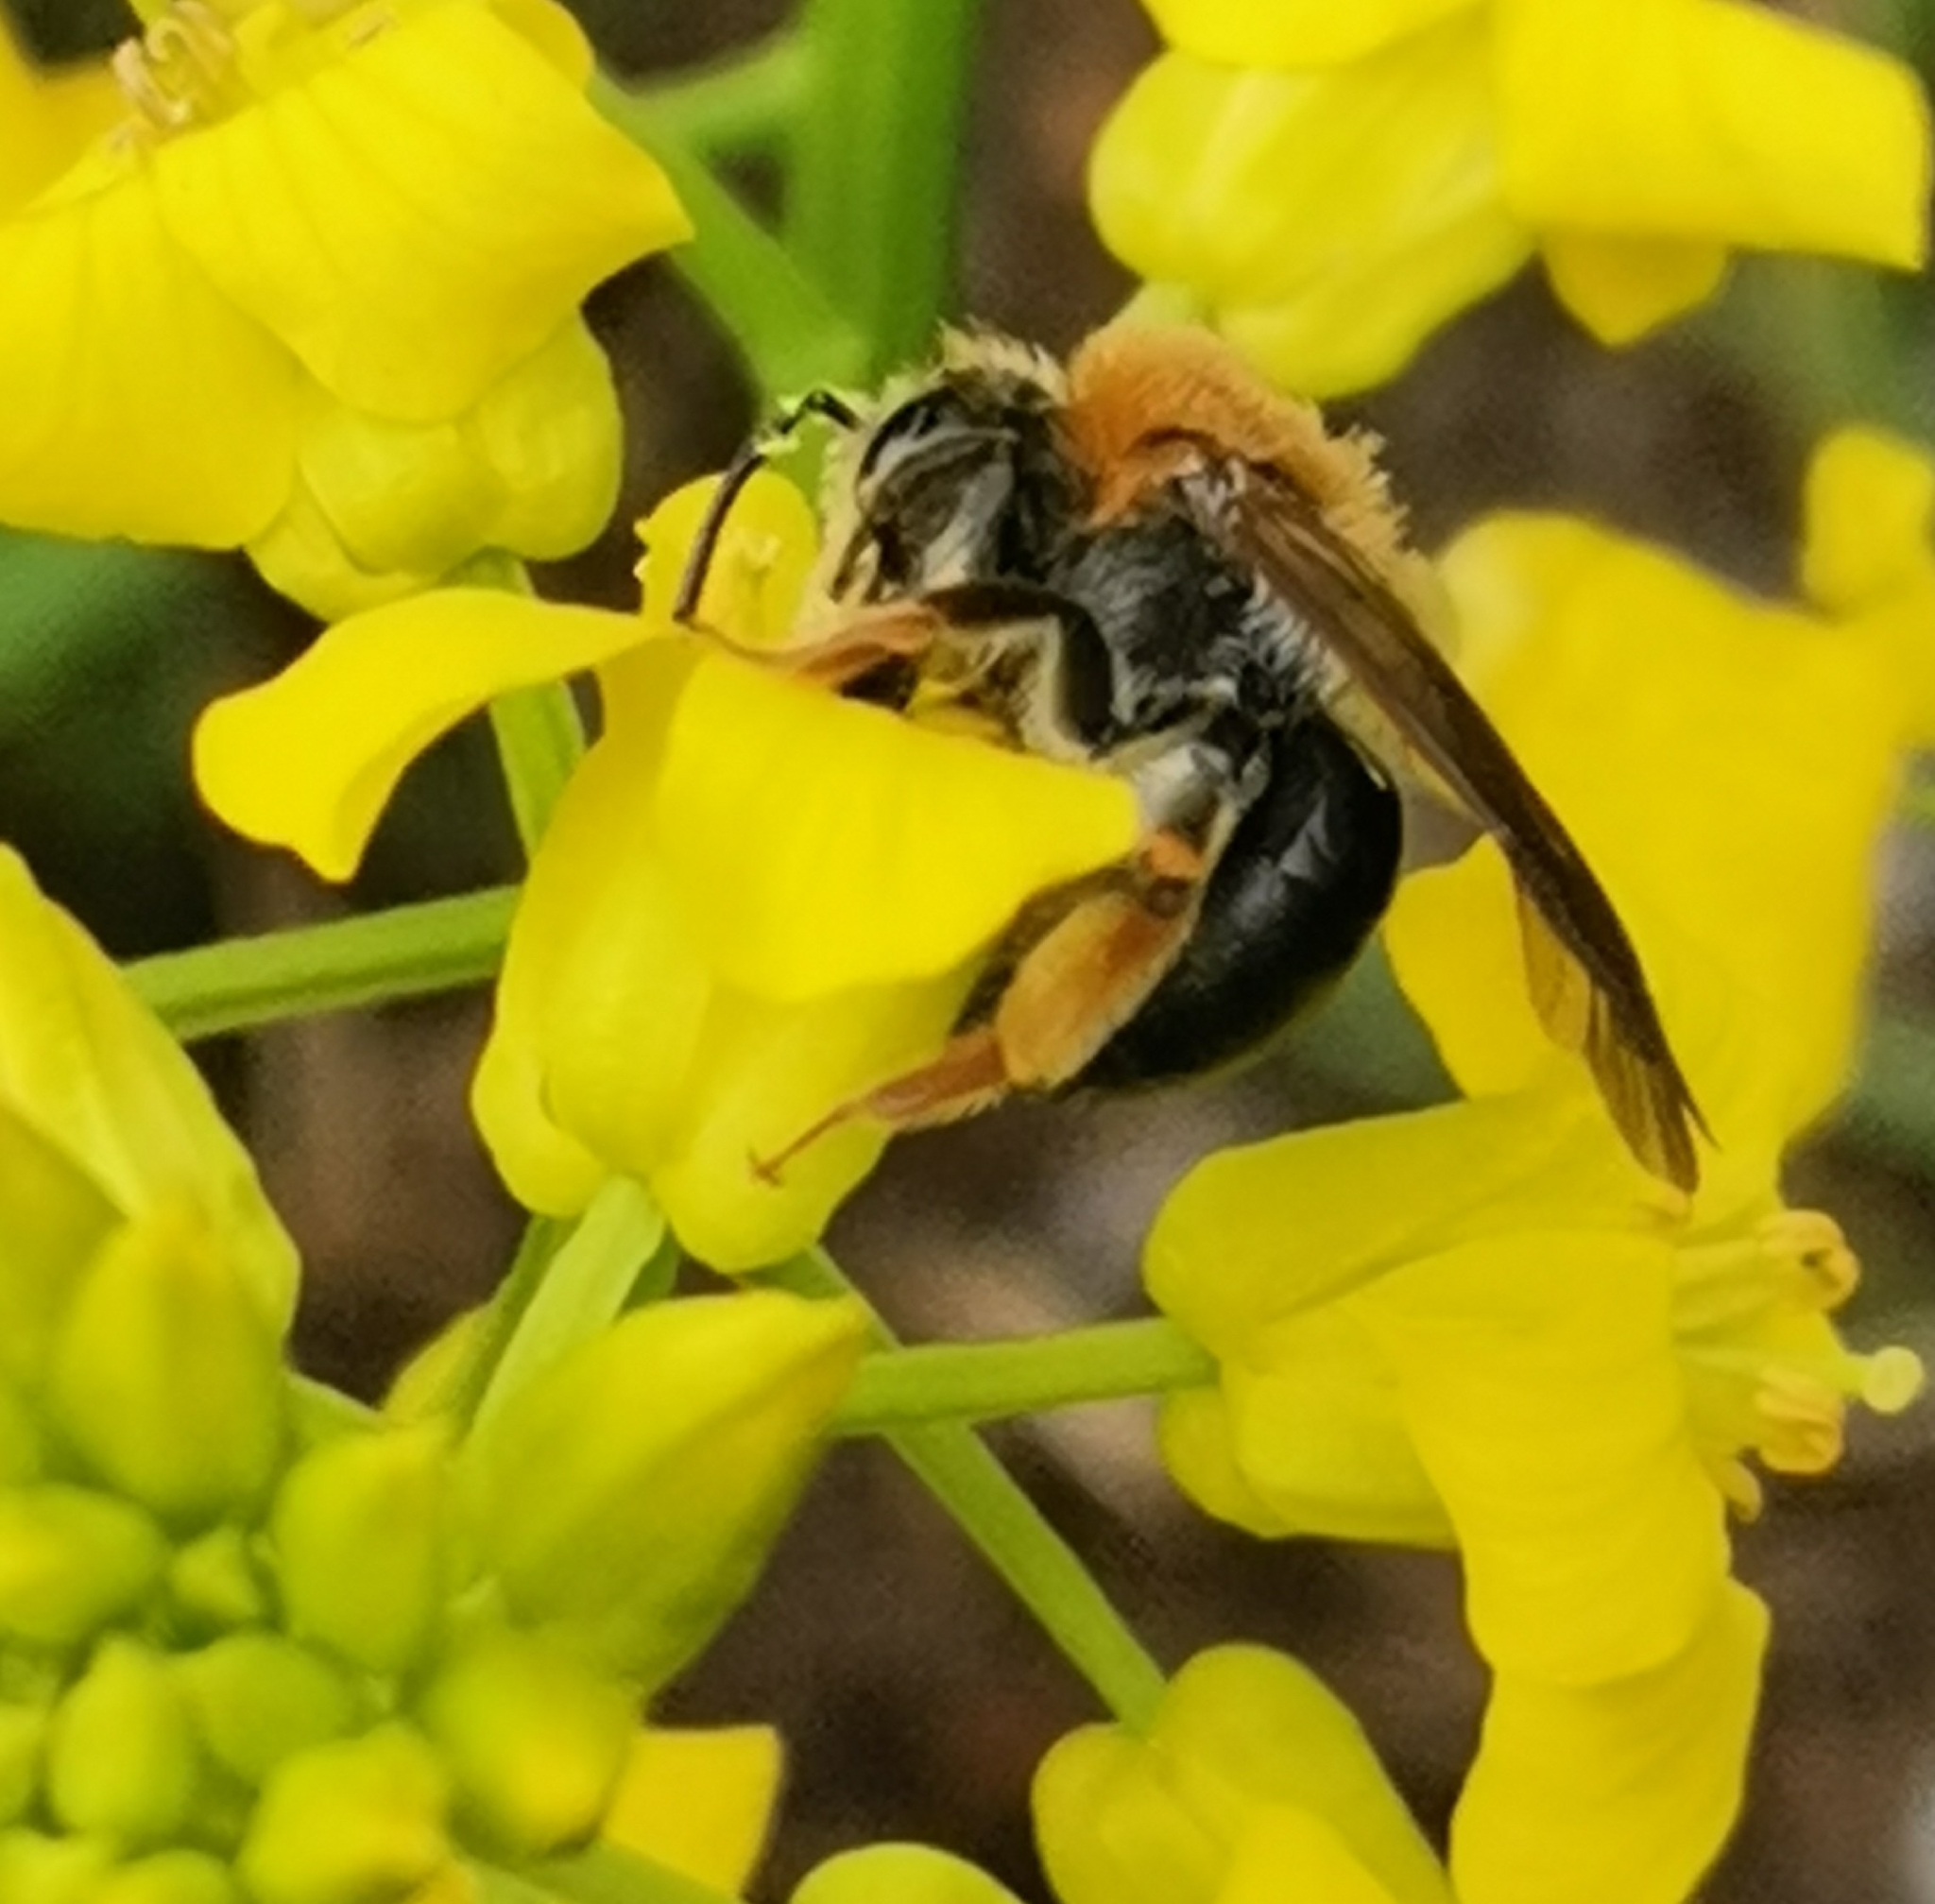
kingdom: Animalia
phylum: Arthropoda
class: Insecta
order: Hymenoptera
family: Andrenidae
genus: Andrena
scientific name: Andrena haemorrhoa
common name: Early mining bee
